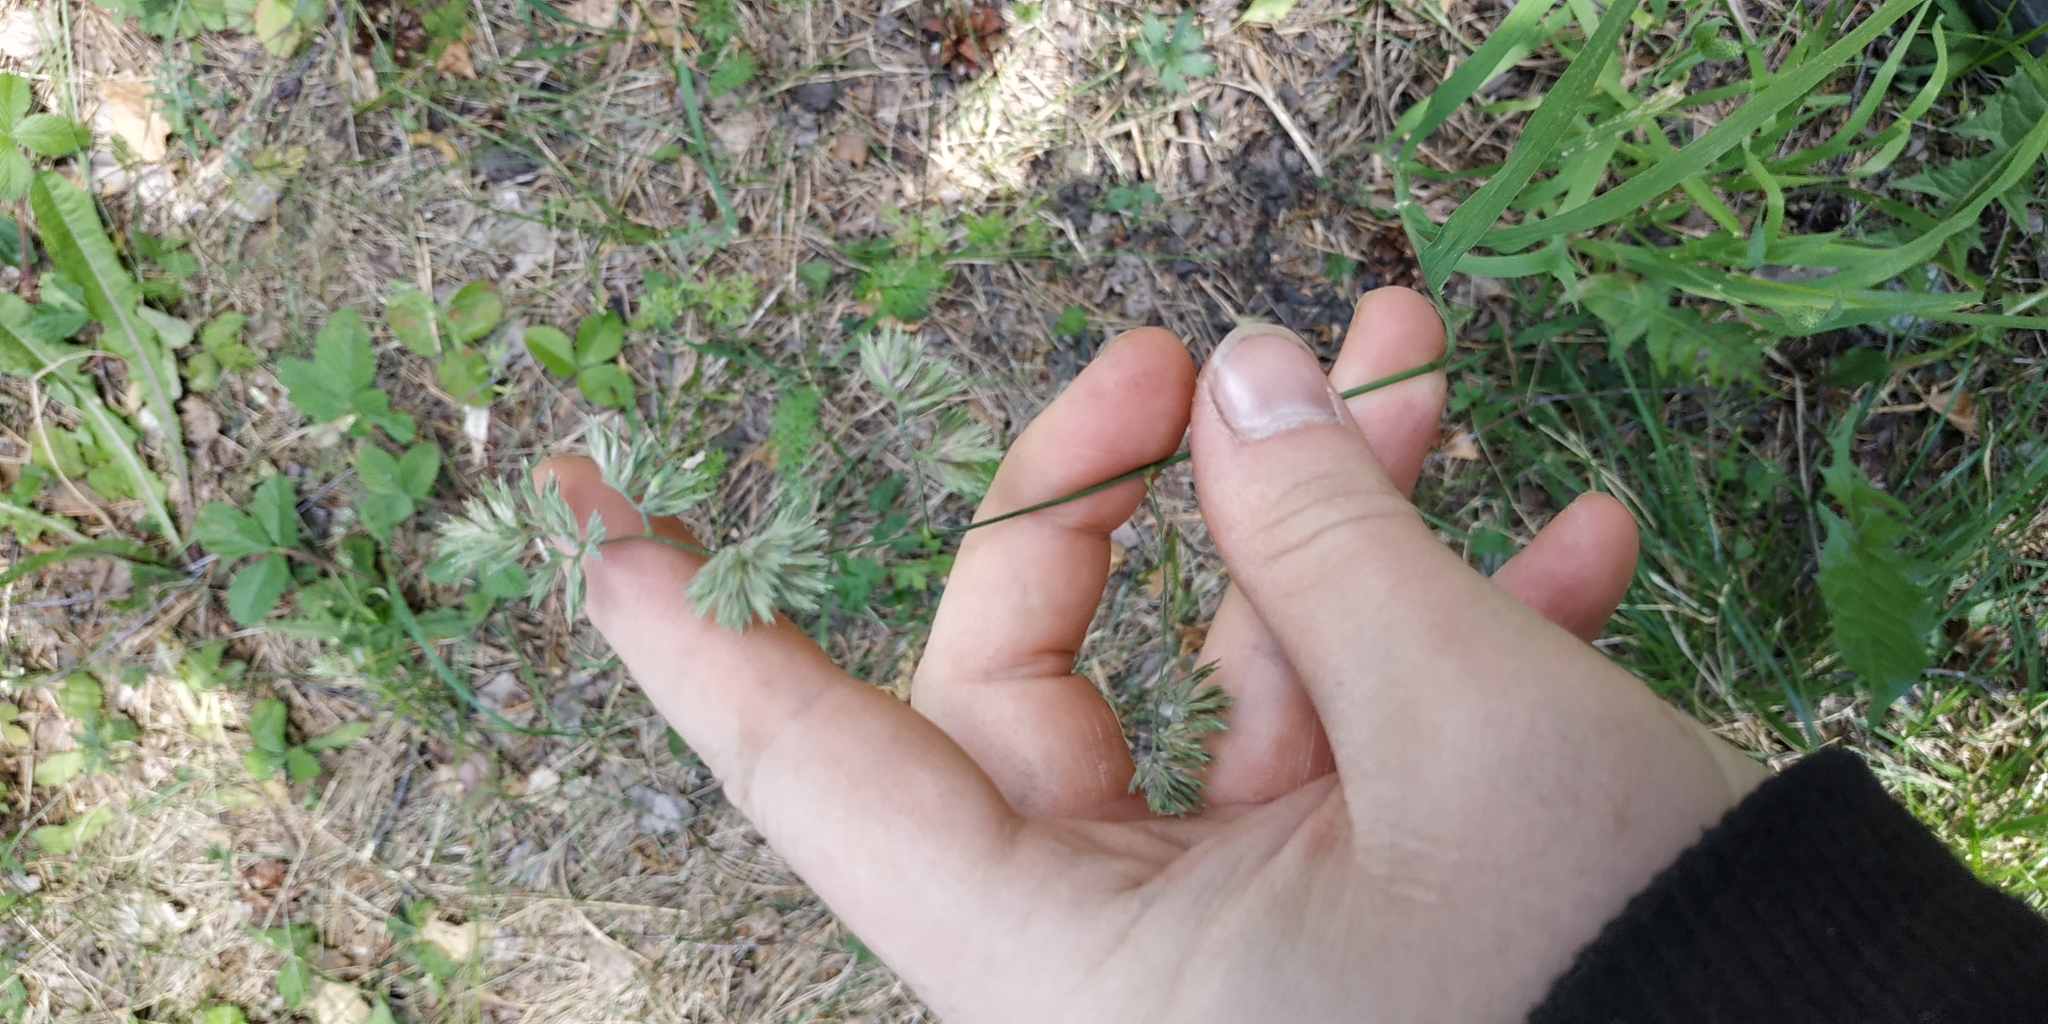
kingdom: Plantae
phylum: Tracheophyta
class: Liliopsida
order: Poales
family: Poaceae
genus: Dactylis
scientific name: Dactylis glomerata
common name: Orchardgrass
